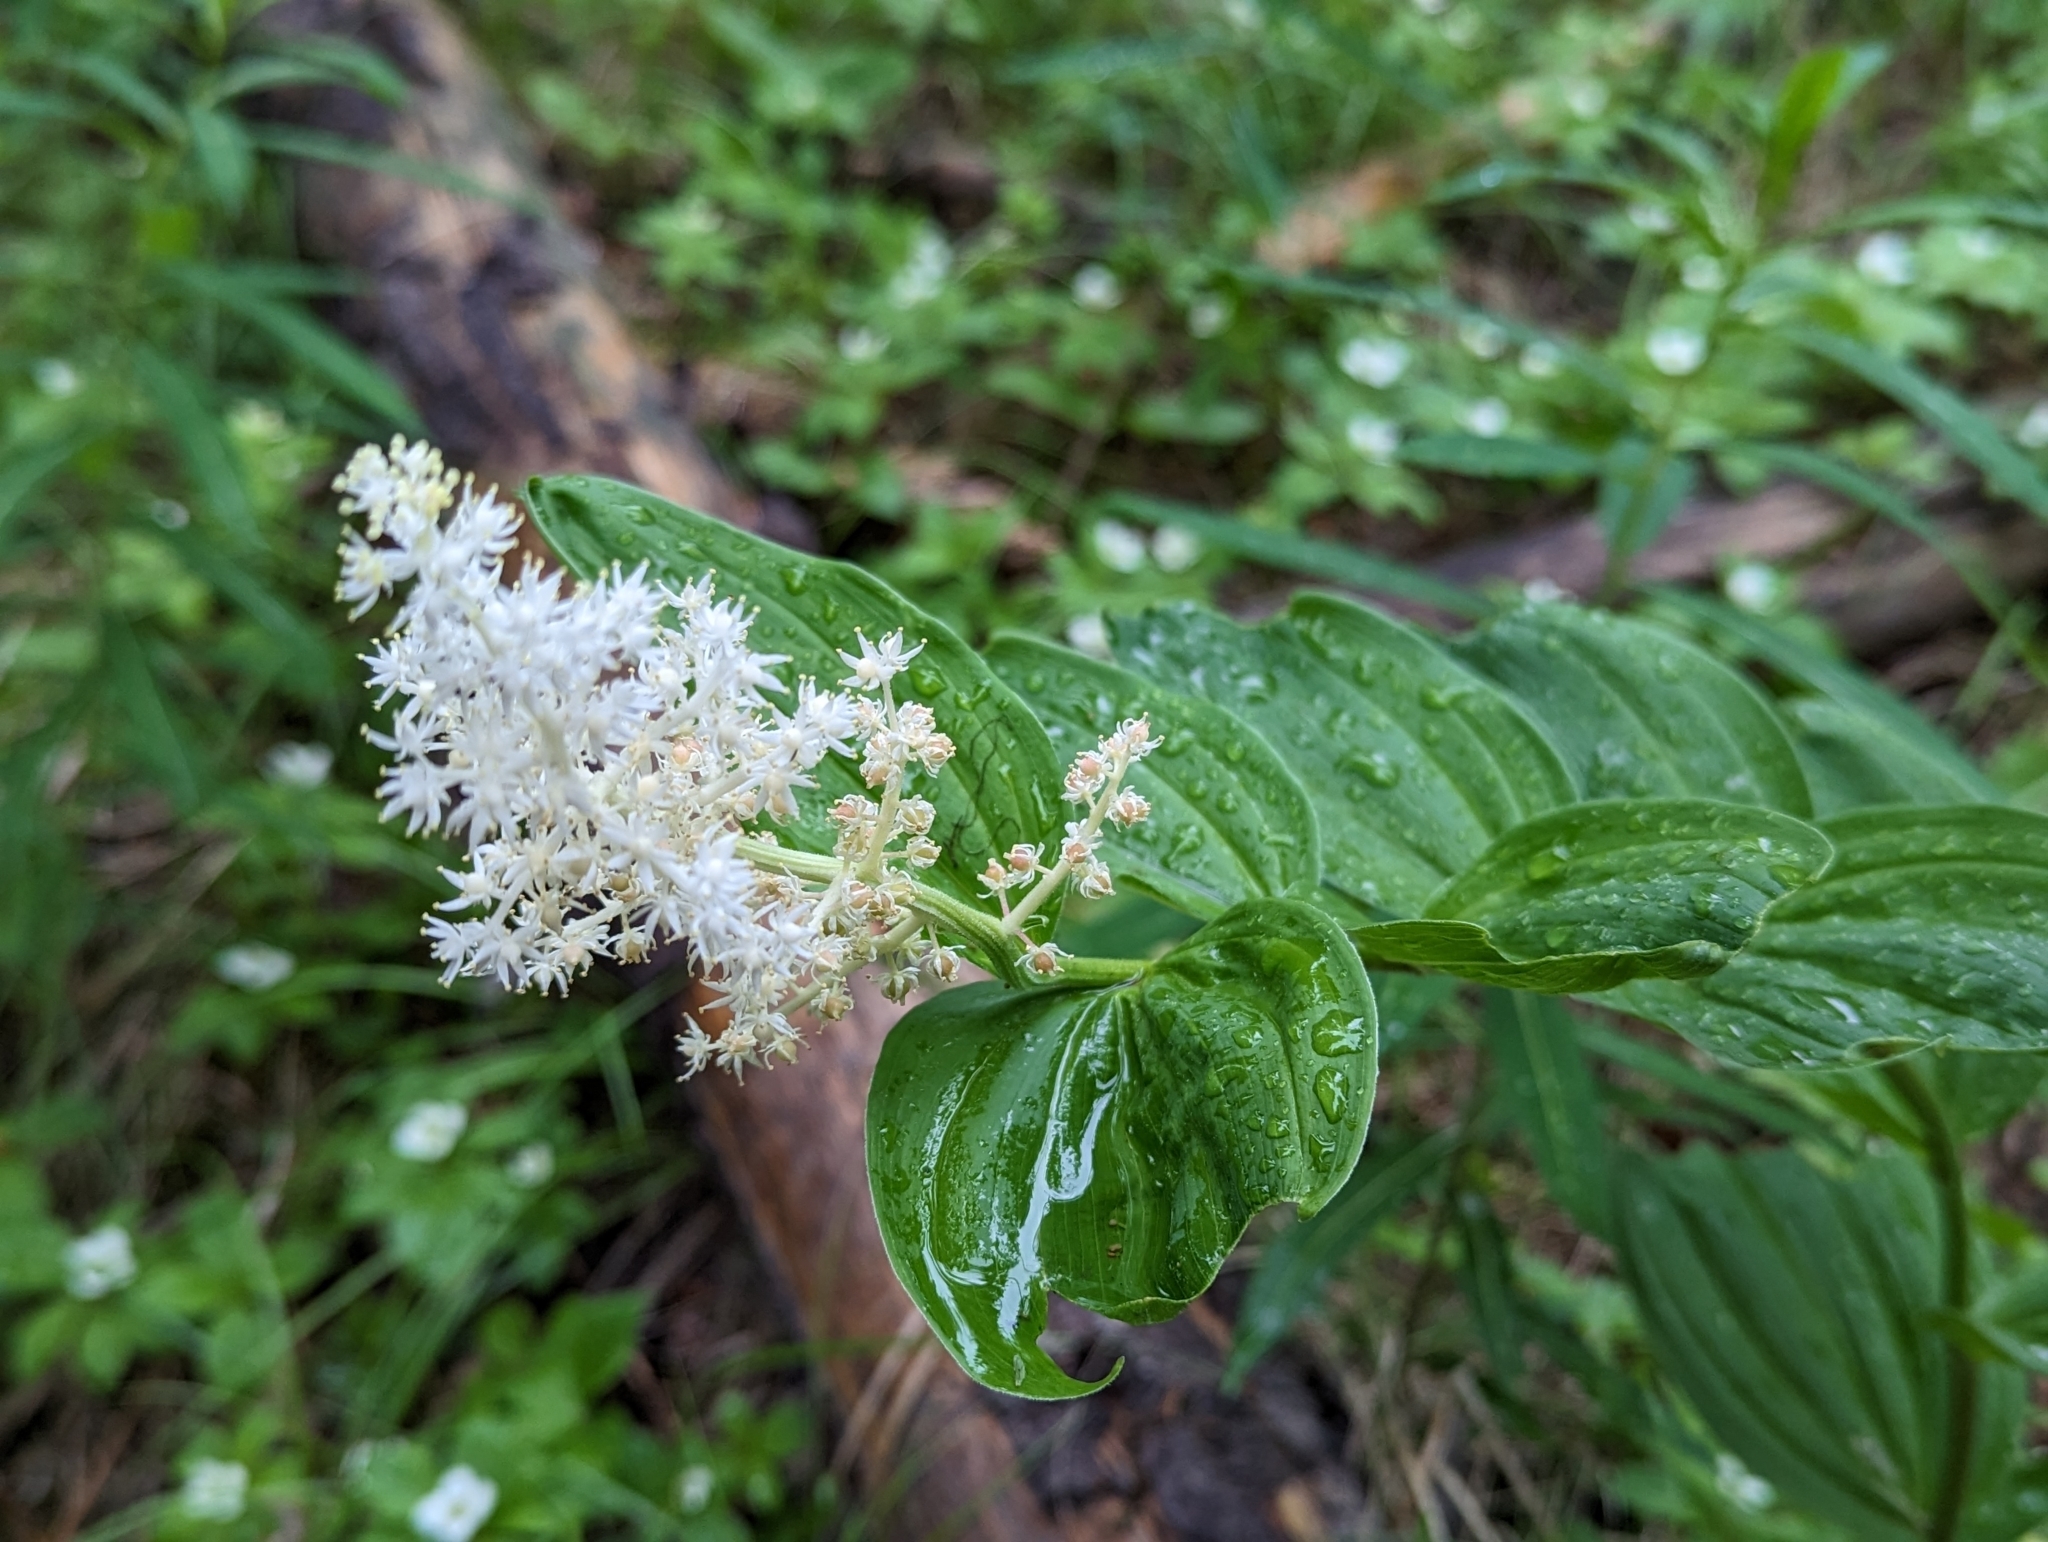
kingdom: Plantae
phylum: Tracheophyta
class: Liliopsida
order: Asparagales
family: Asparagaceae
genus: Maianthemum
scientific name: Maianthemum racemosum
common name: False spikenard
